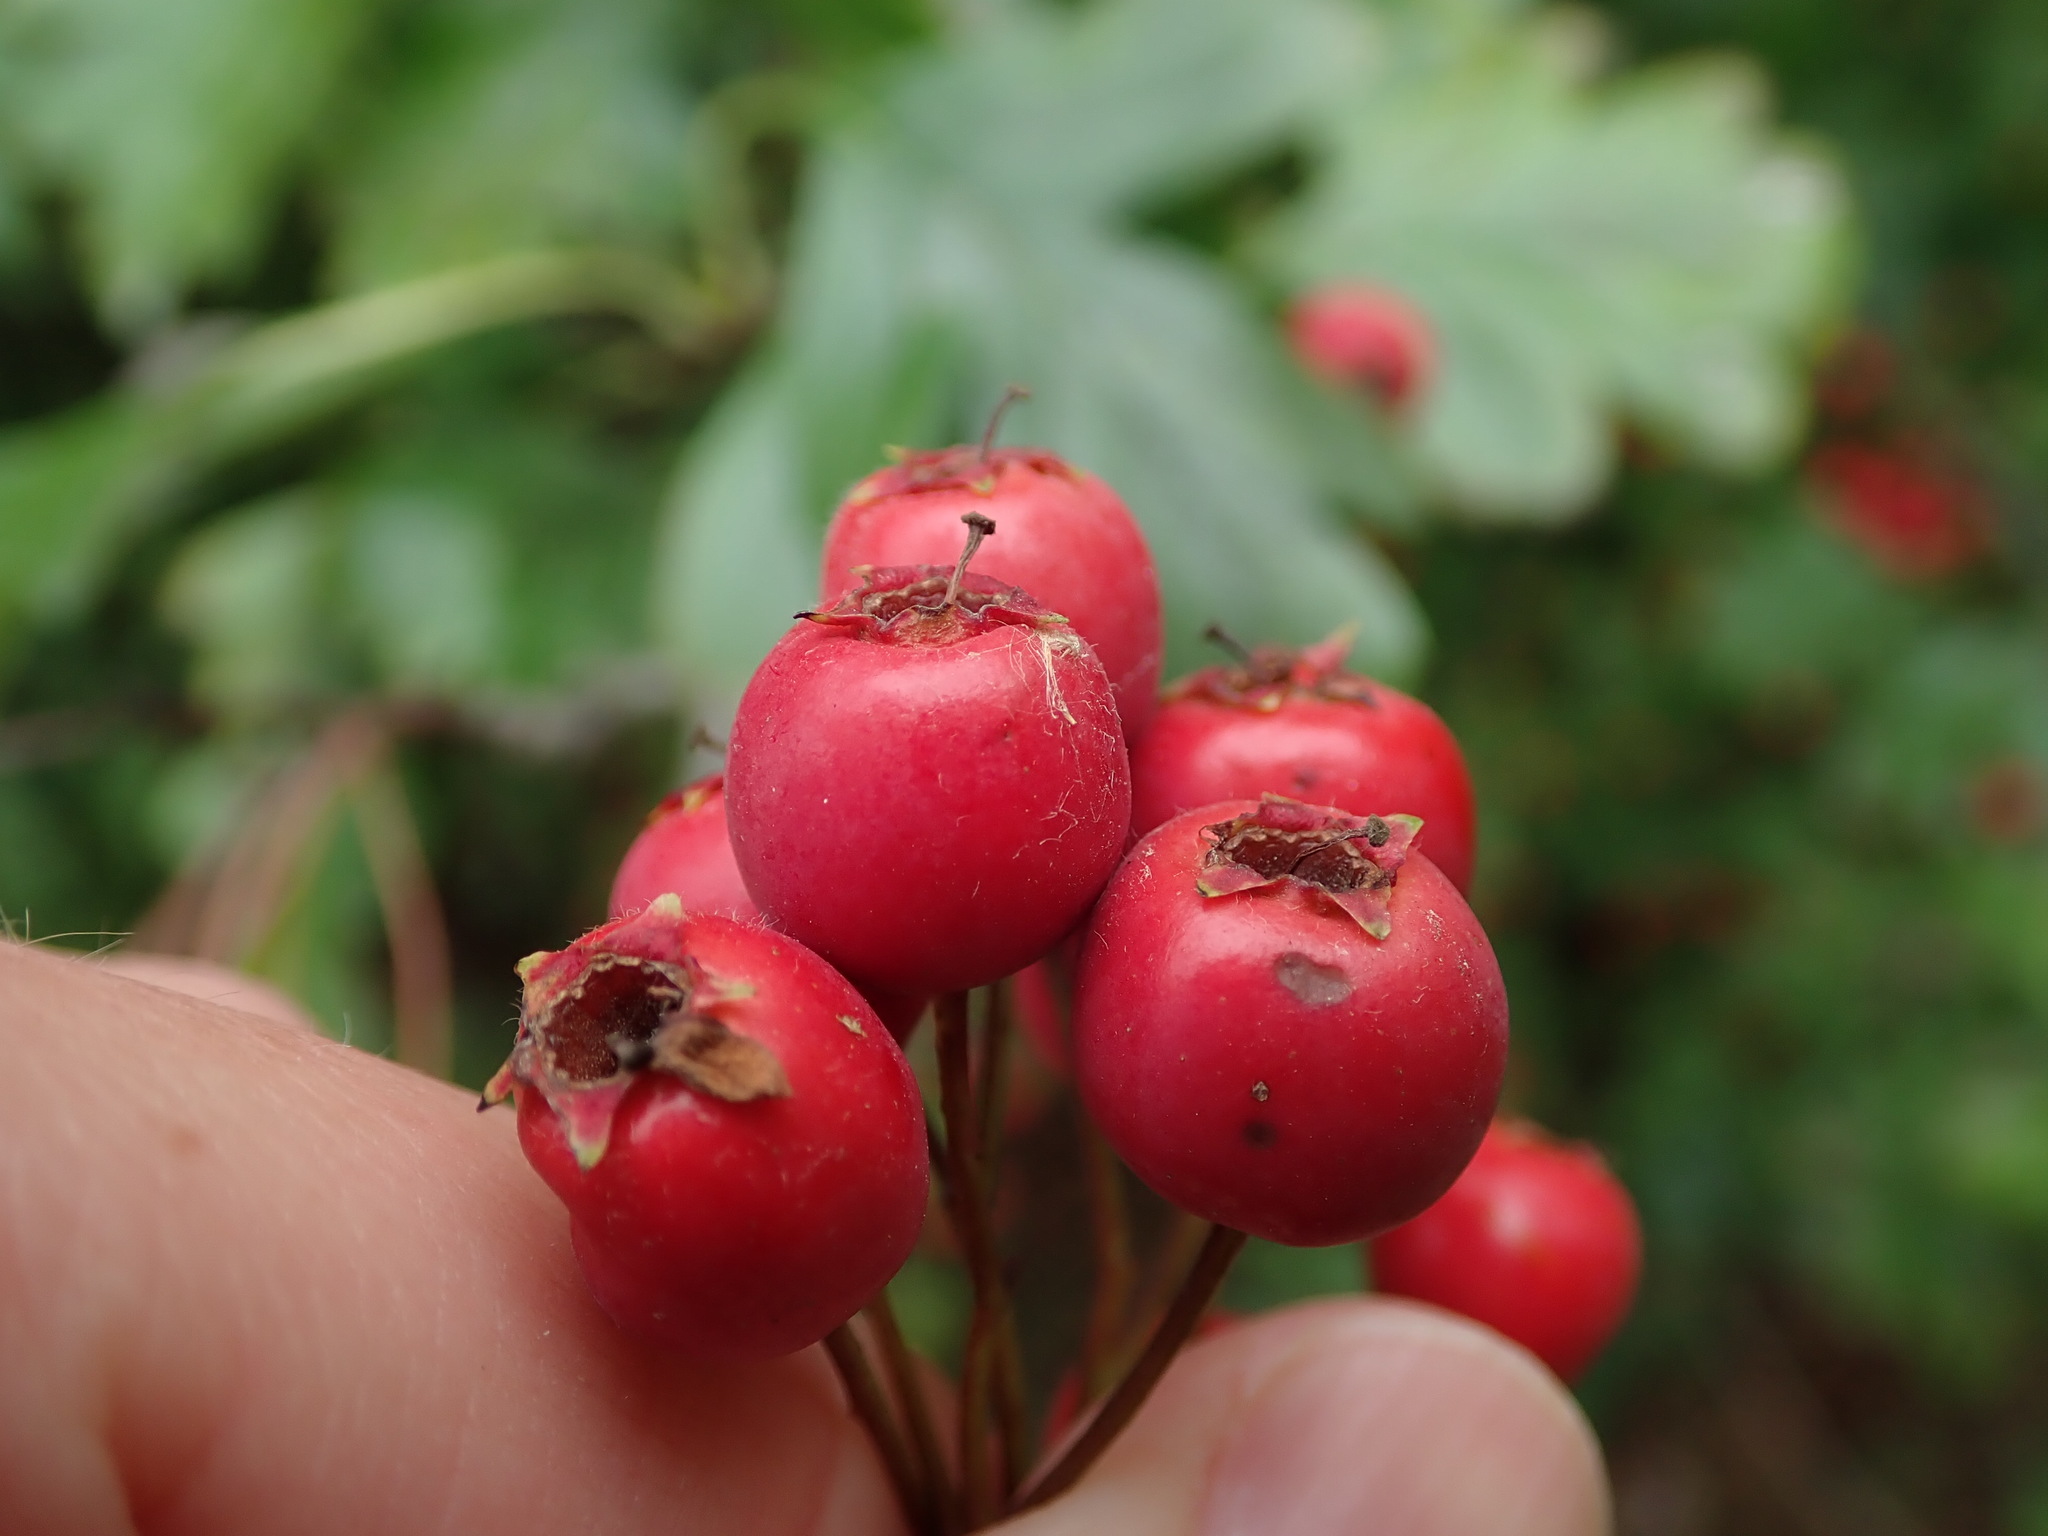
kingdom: Plantae
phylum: Tracheophyta
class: Magnoliopsida
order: Rosales
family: Rosaceae
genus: Crataegus
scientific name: Crataegus monogyna
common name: Hawthorn
